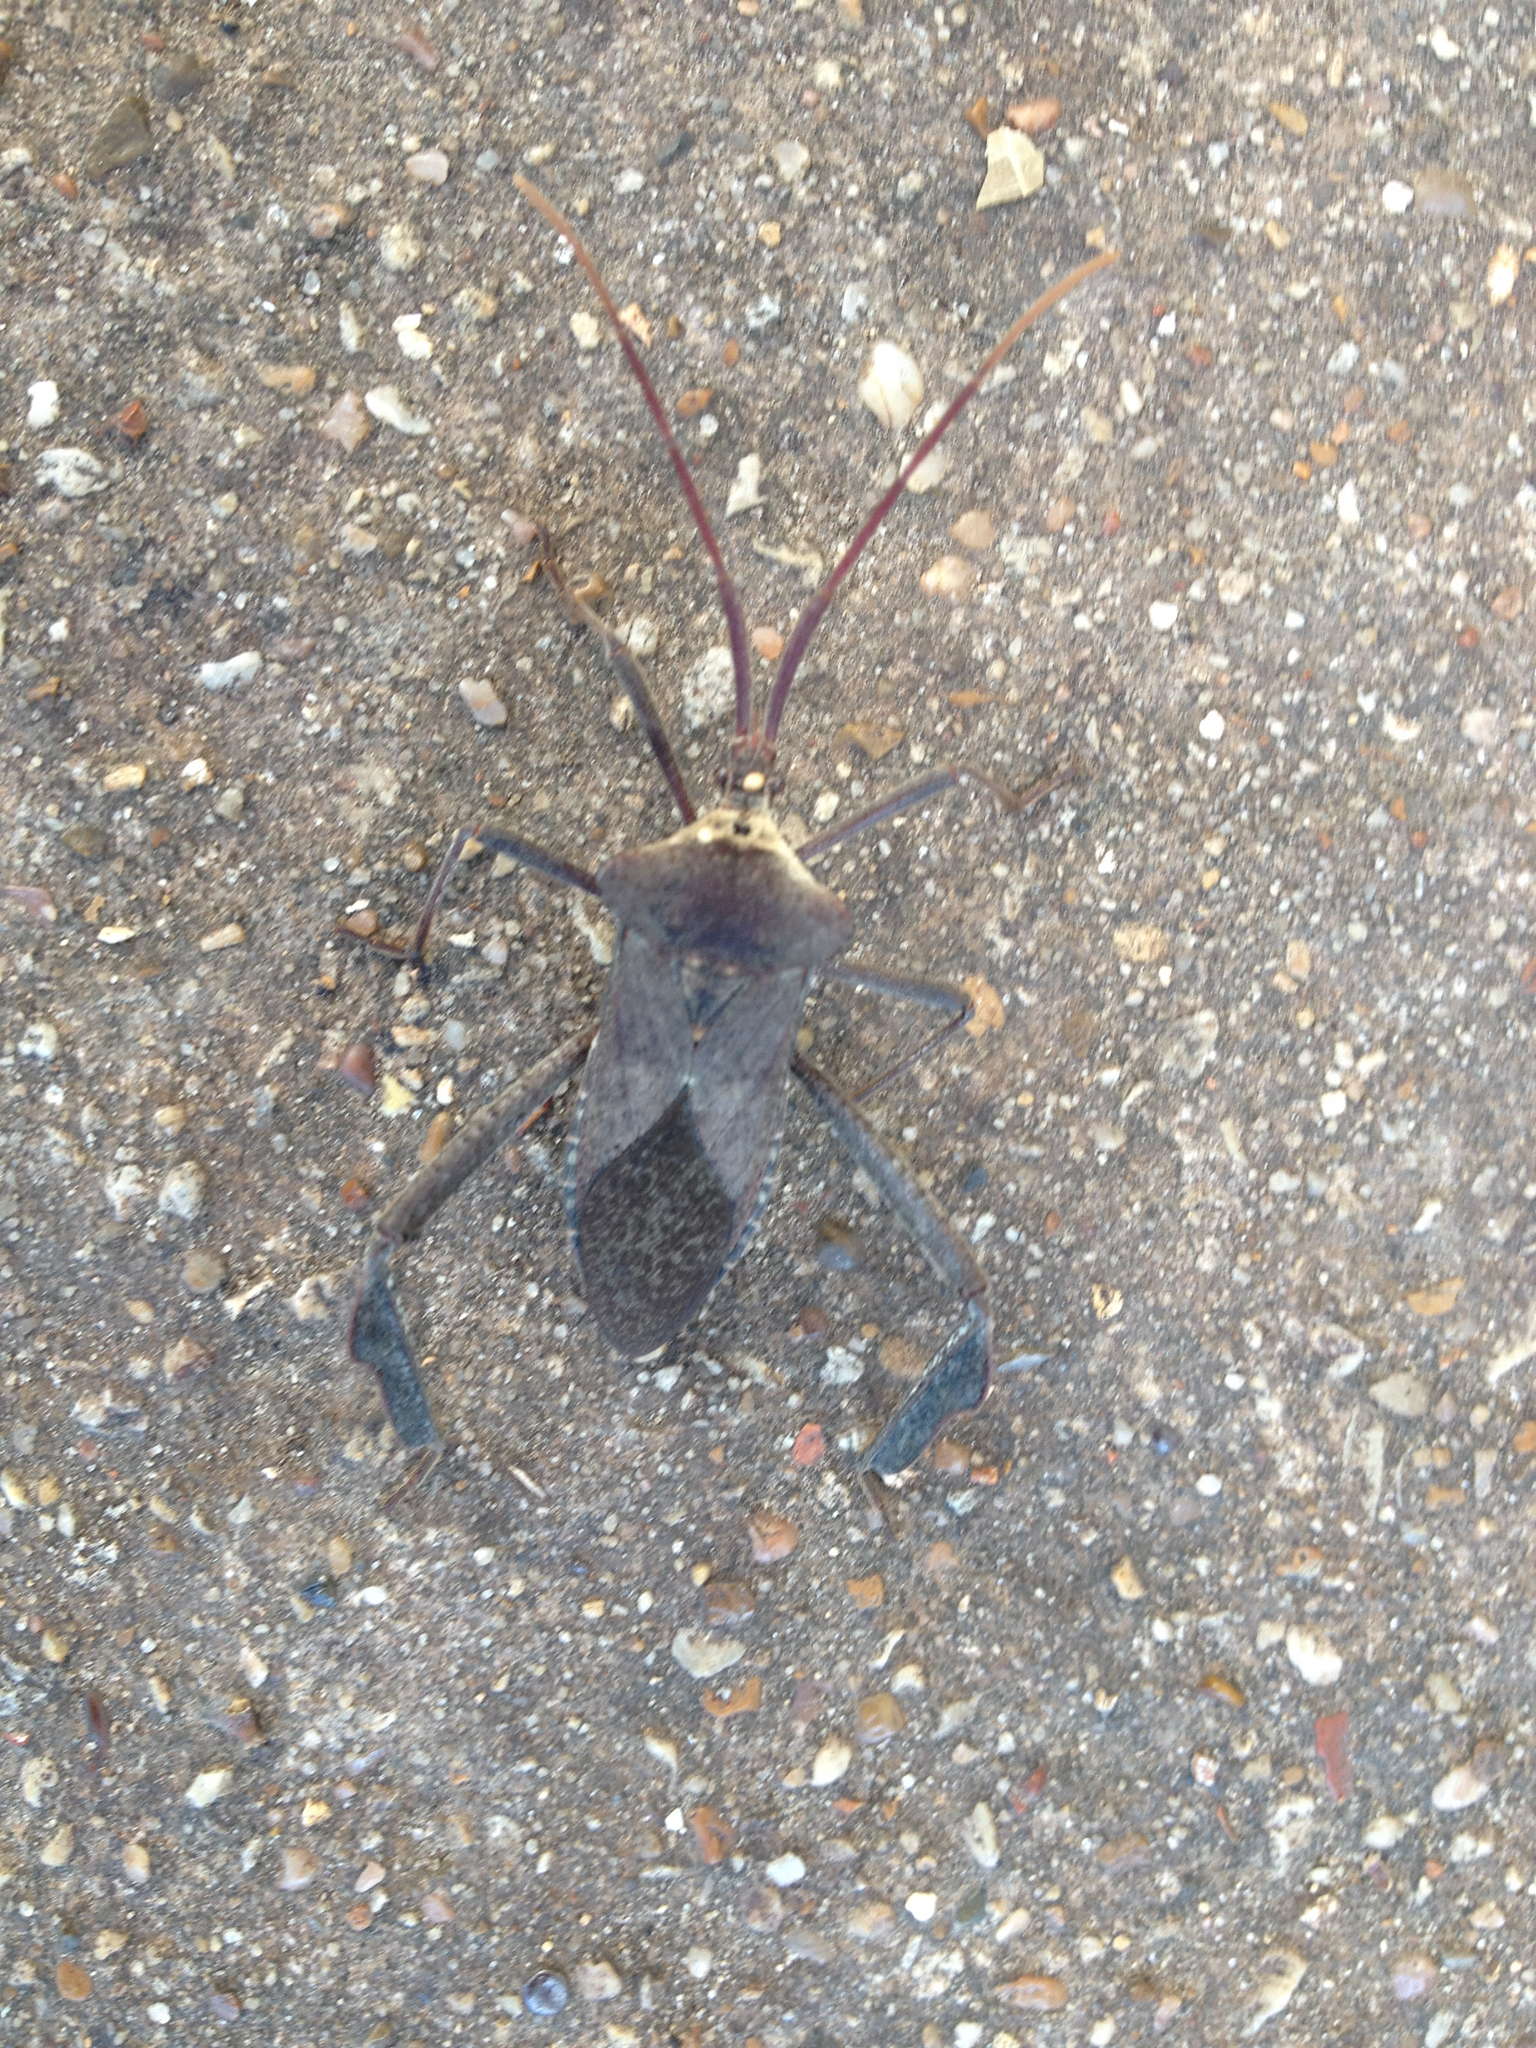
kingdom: Animalia
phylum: Arthropoda
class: Insecta
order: Hemiptera
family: Coreidae
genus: Acanthocephala
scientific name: Acanthocephala declivis
